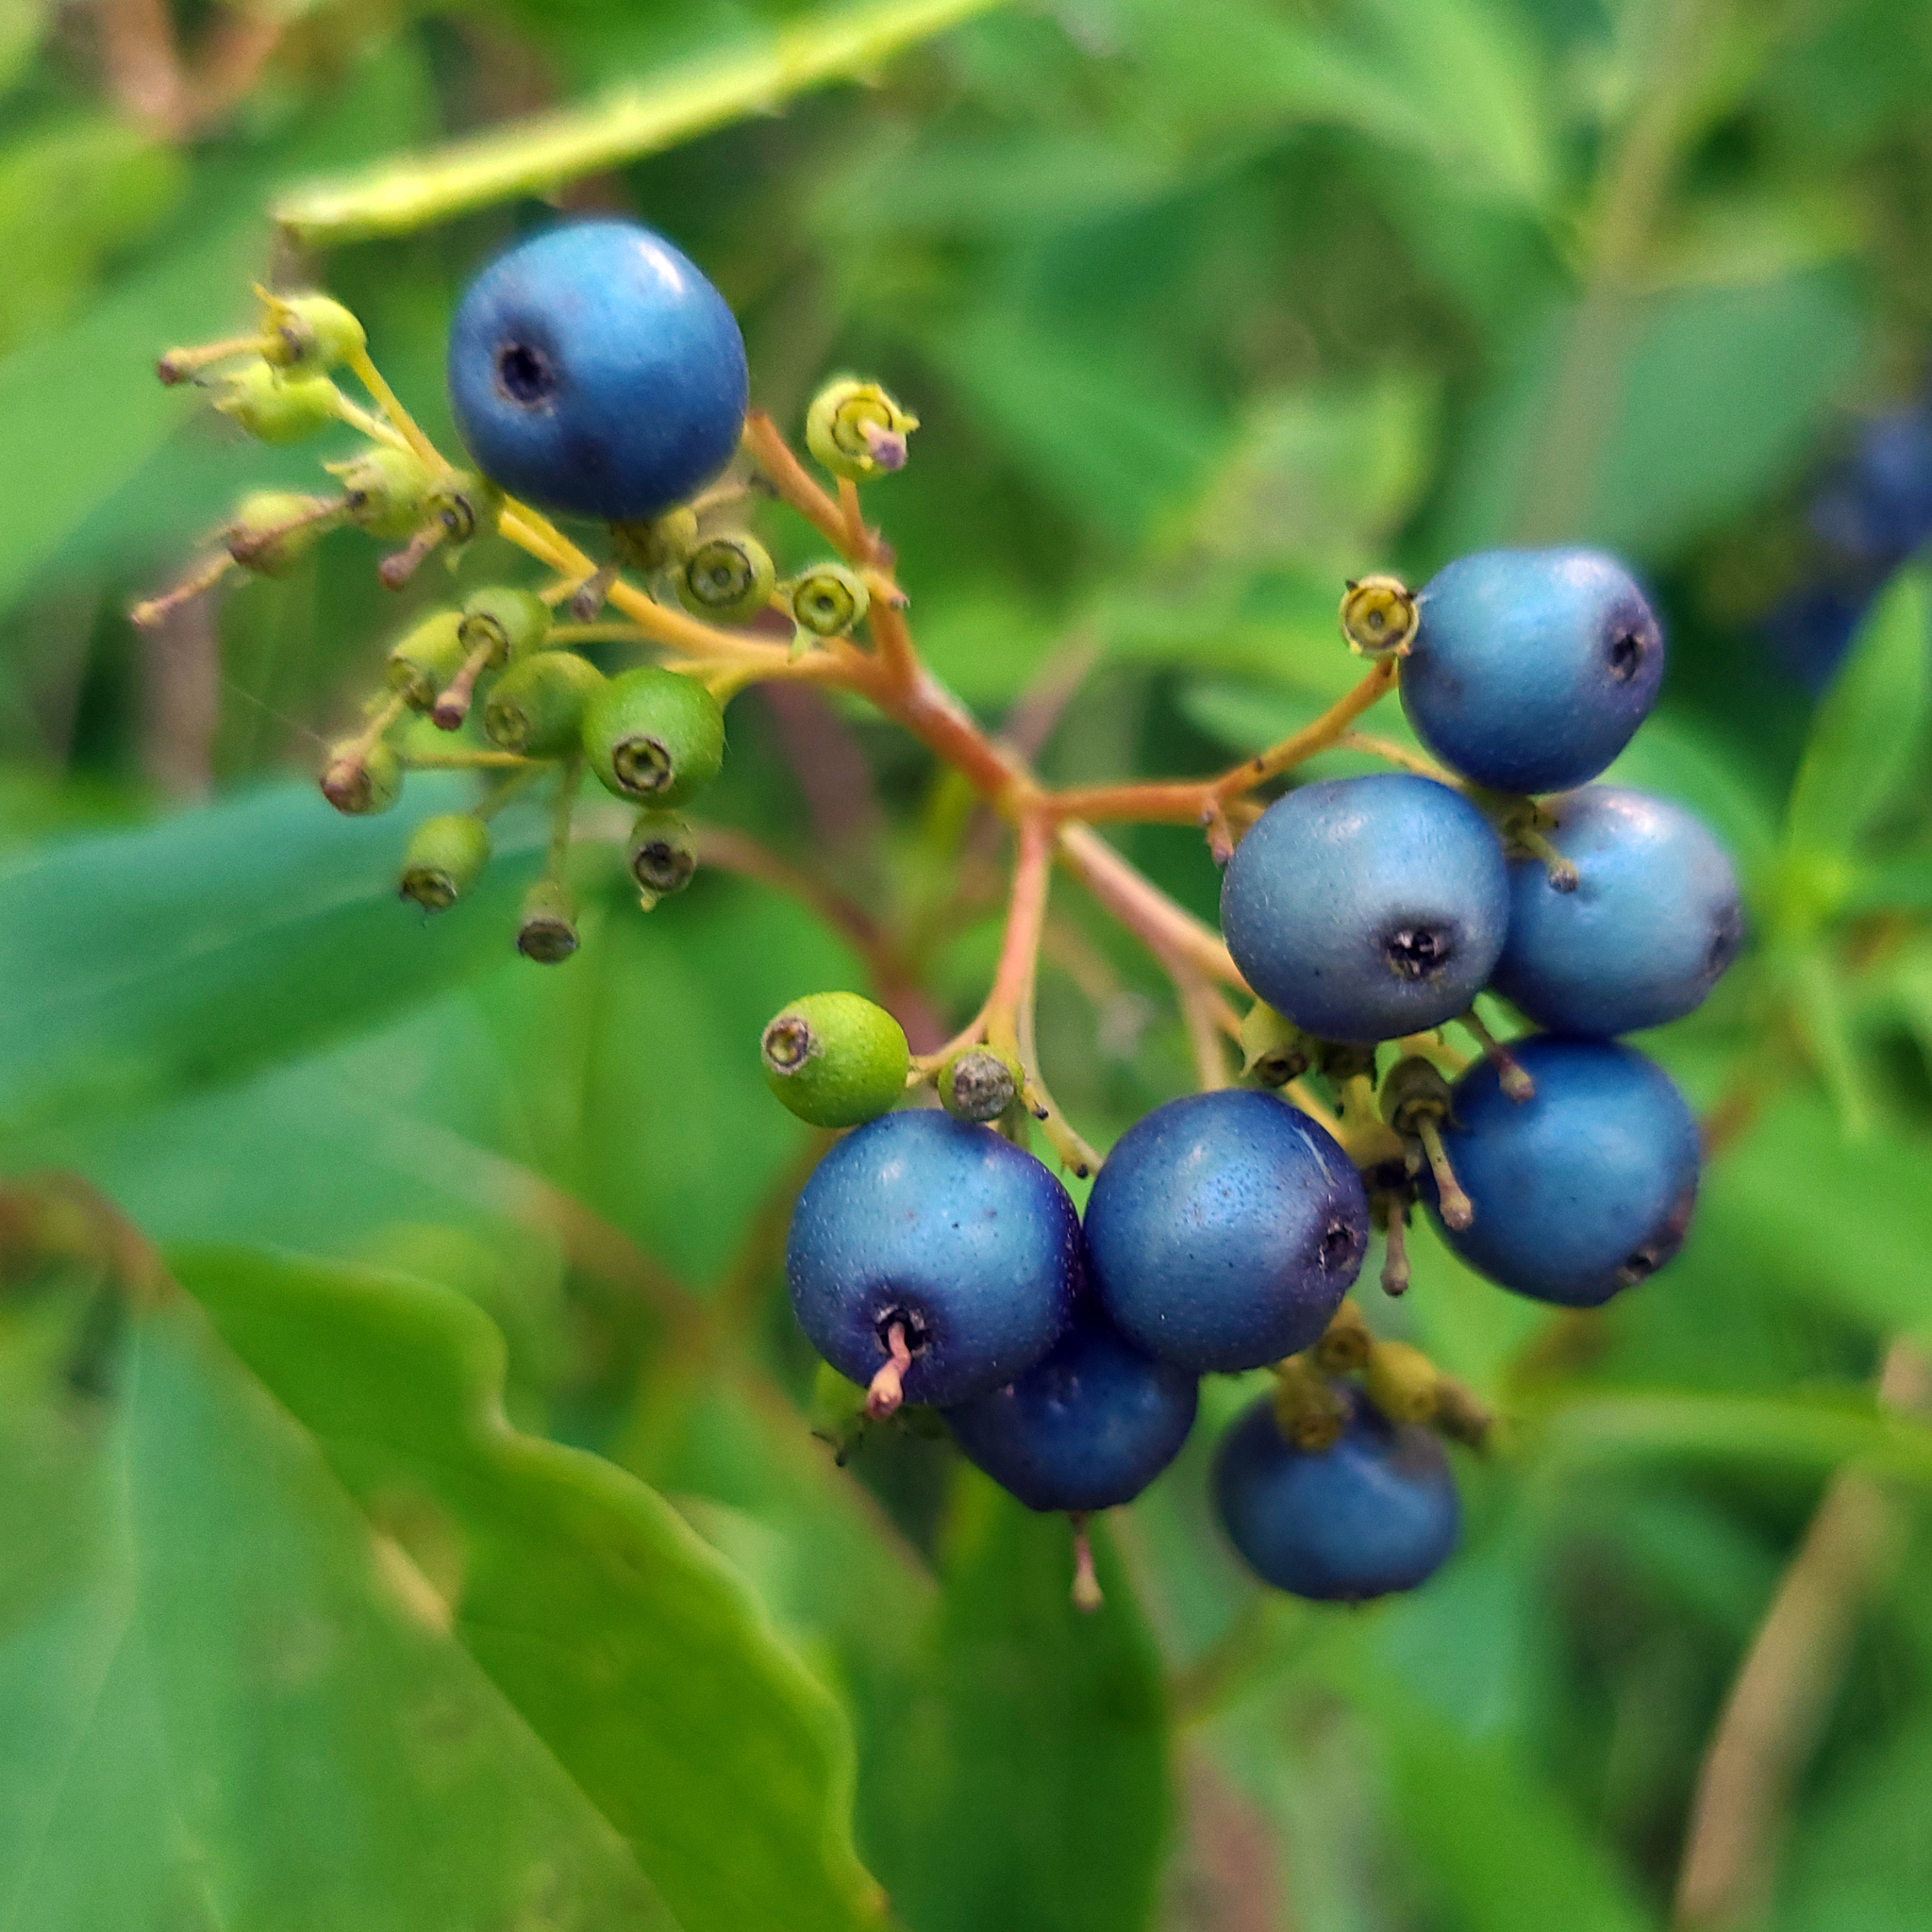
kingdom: Plantae
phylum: Tracheophyta
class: Magnoliopsida
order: Cornales
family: Cornaceae
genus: Cornus
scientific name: Cornus amomum
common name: Silky dogwood
